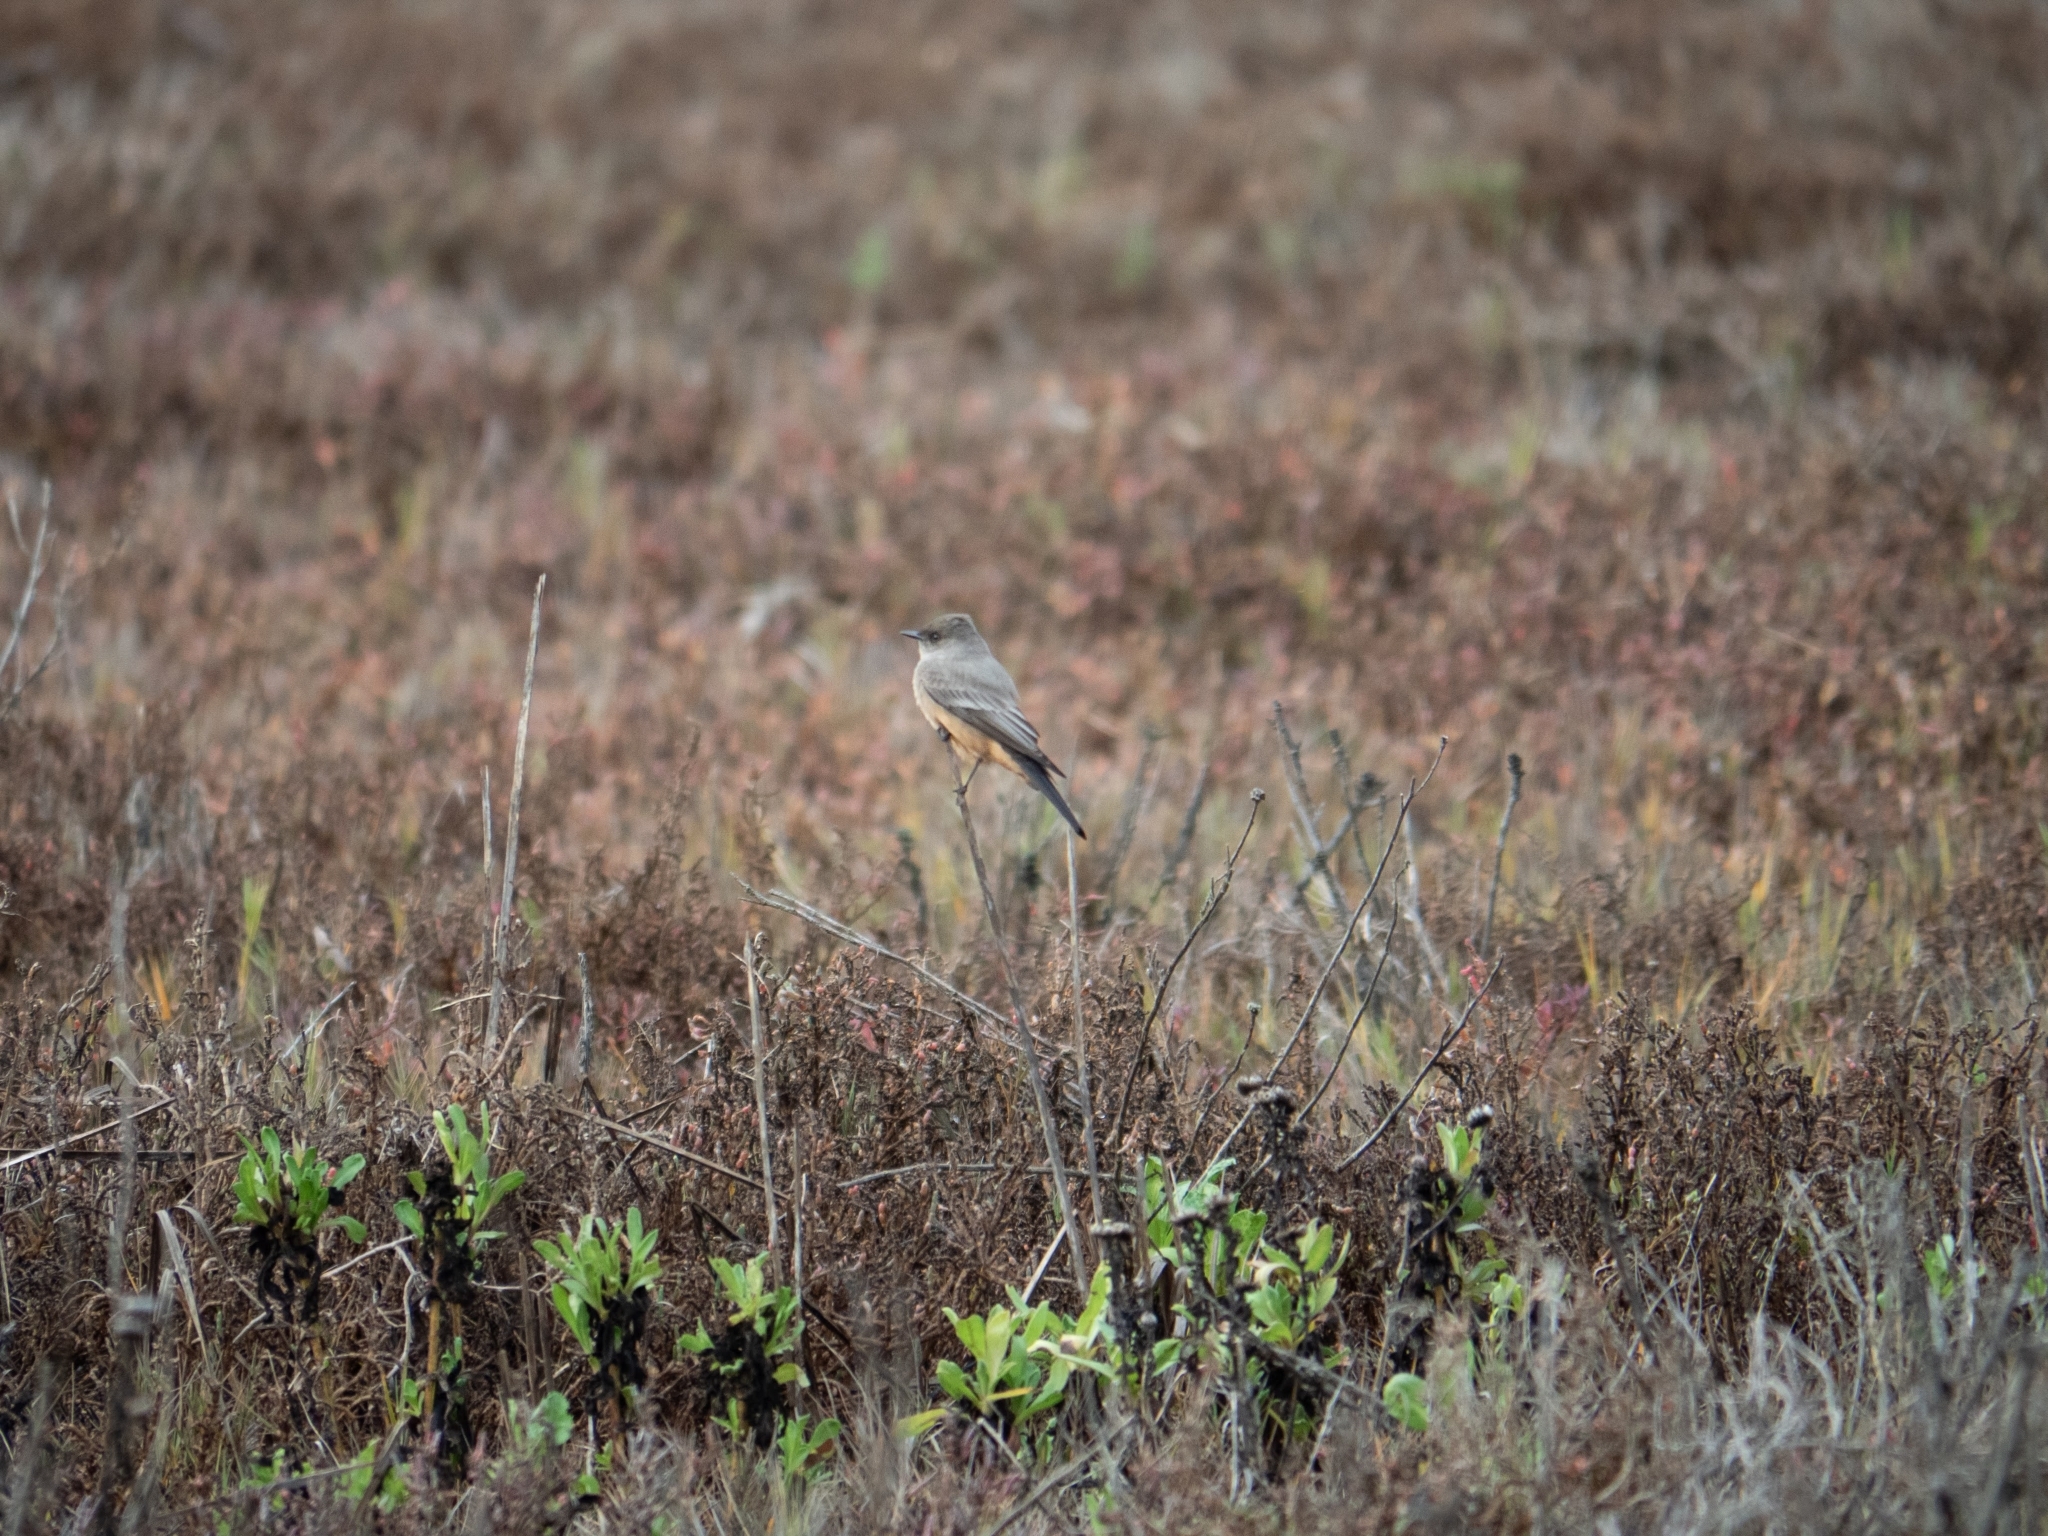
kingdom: Animalia
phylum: Chordata
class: Aves
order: Passeriformes
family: Tyrannidae
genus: Sayornis
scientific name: Sayornis saya
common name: Say's phoebe
